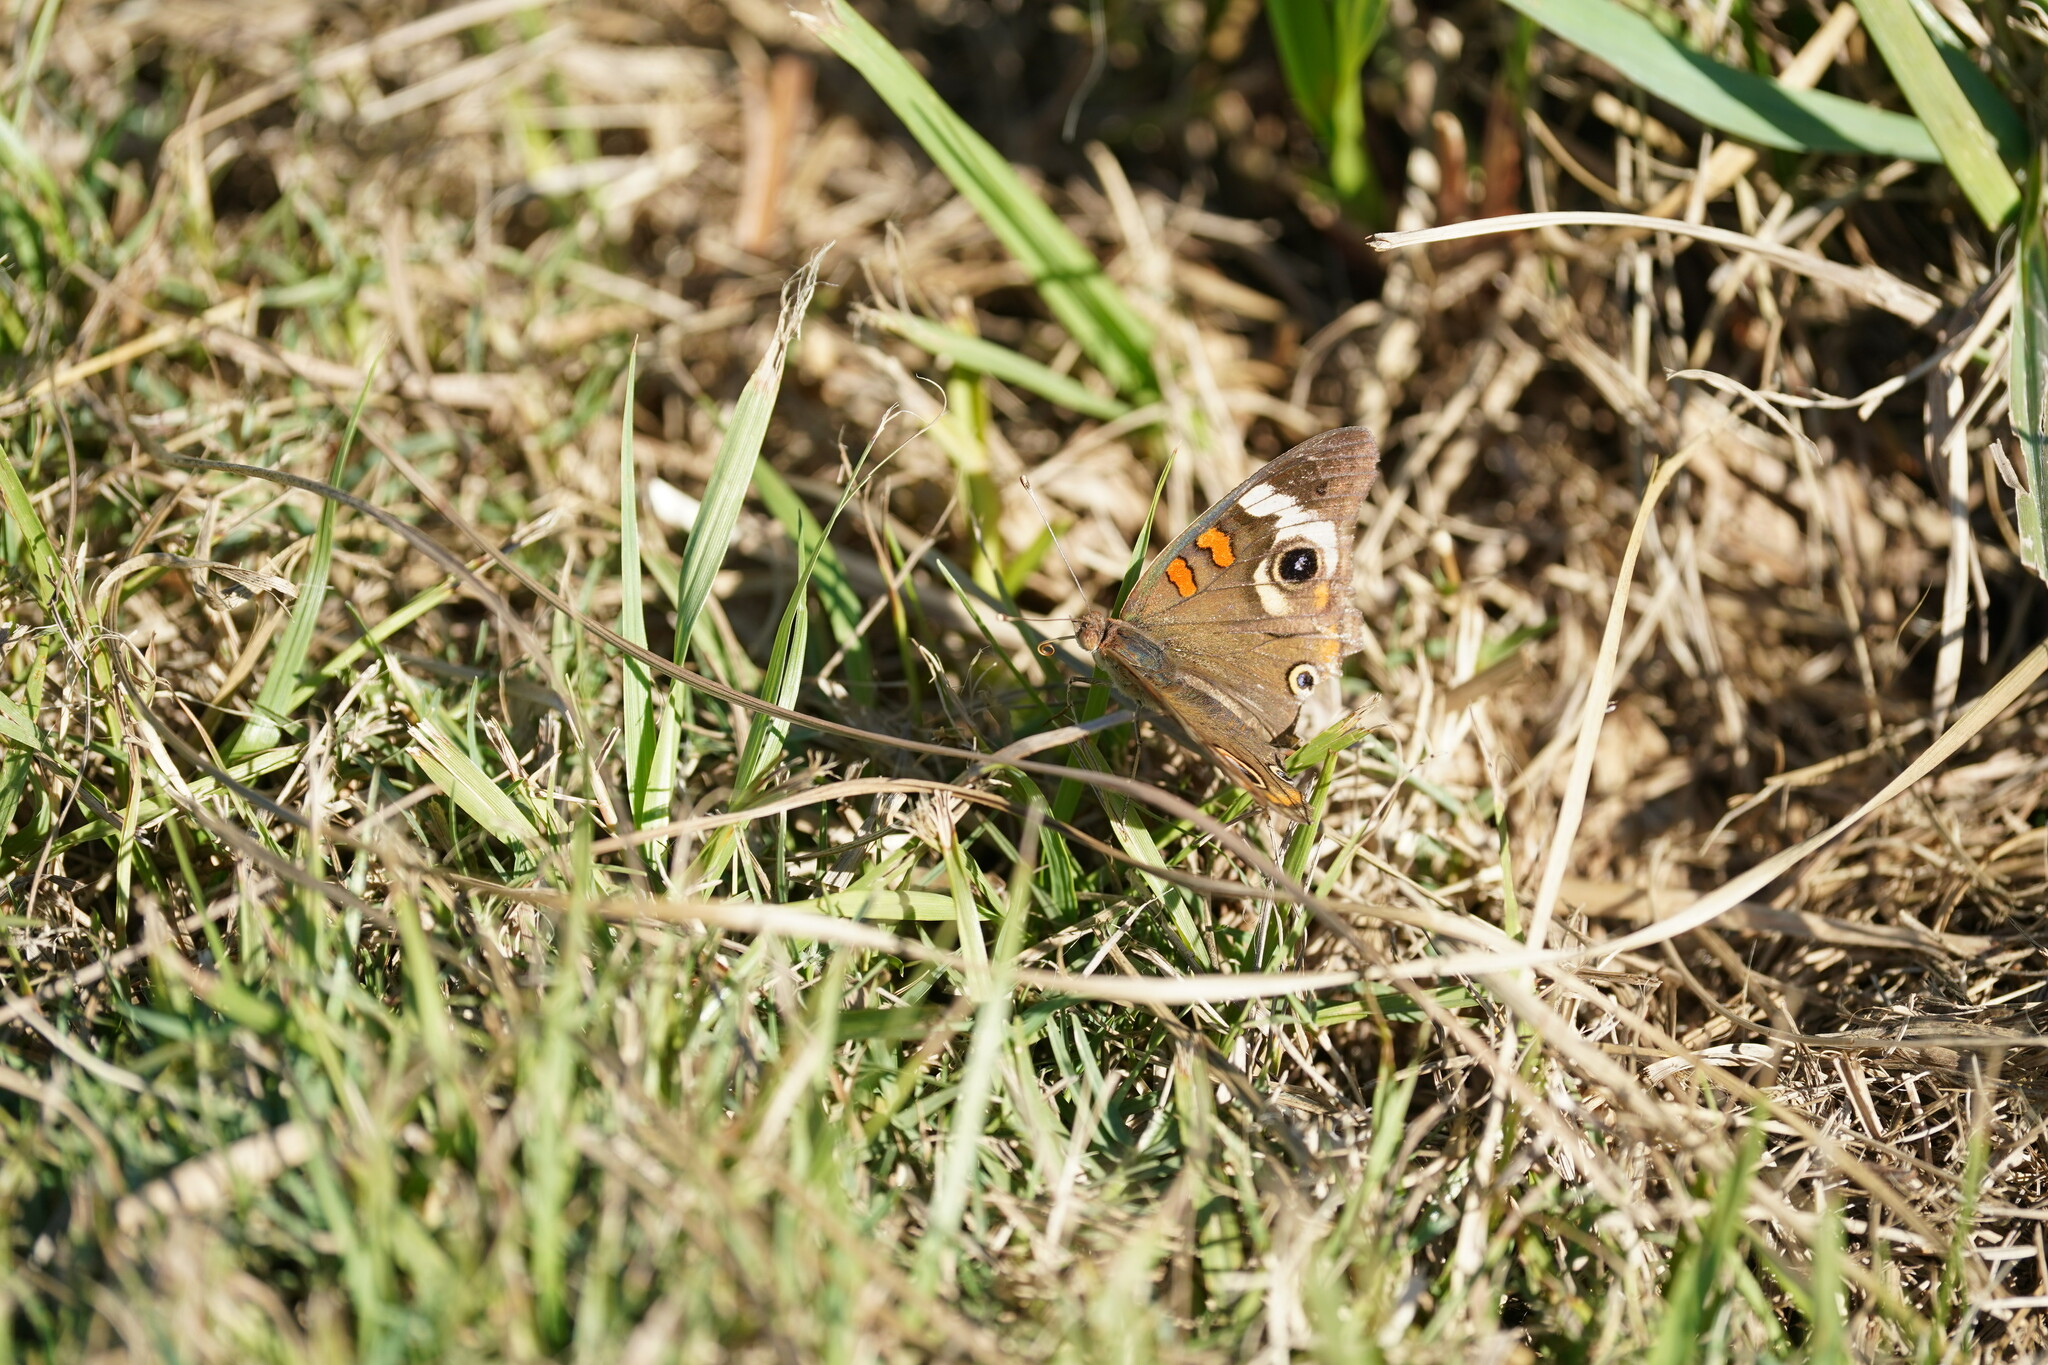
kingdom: Animalia
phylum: Arthropoda
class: Insecta
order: Lepidoptera
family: Nymphalidae
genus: Junonia
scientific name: Junonia coenia
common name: Common buckeye
